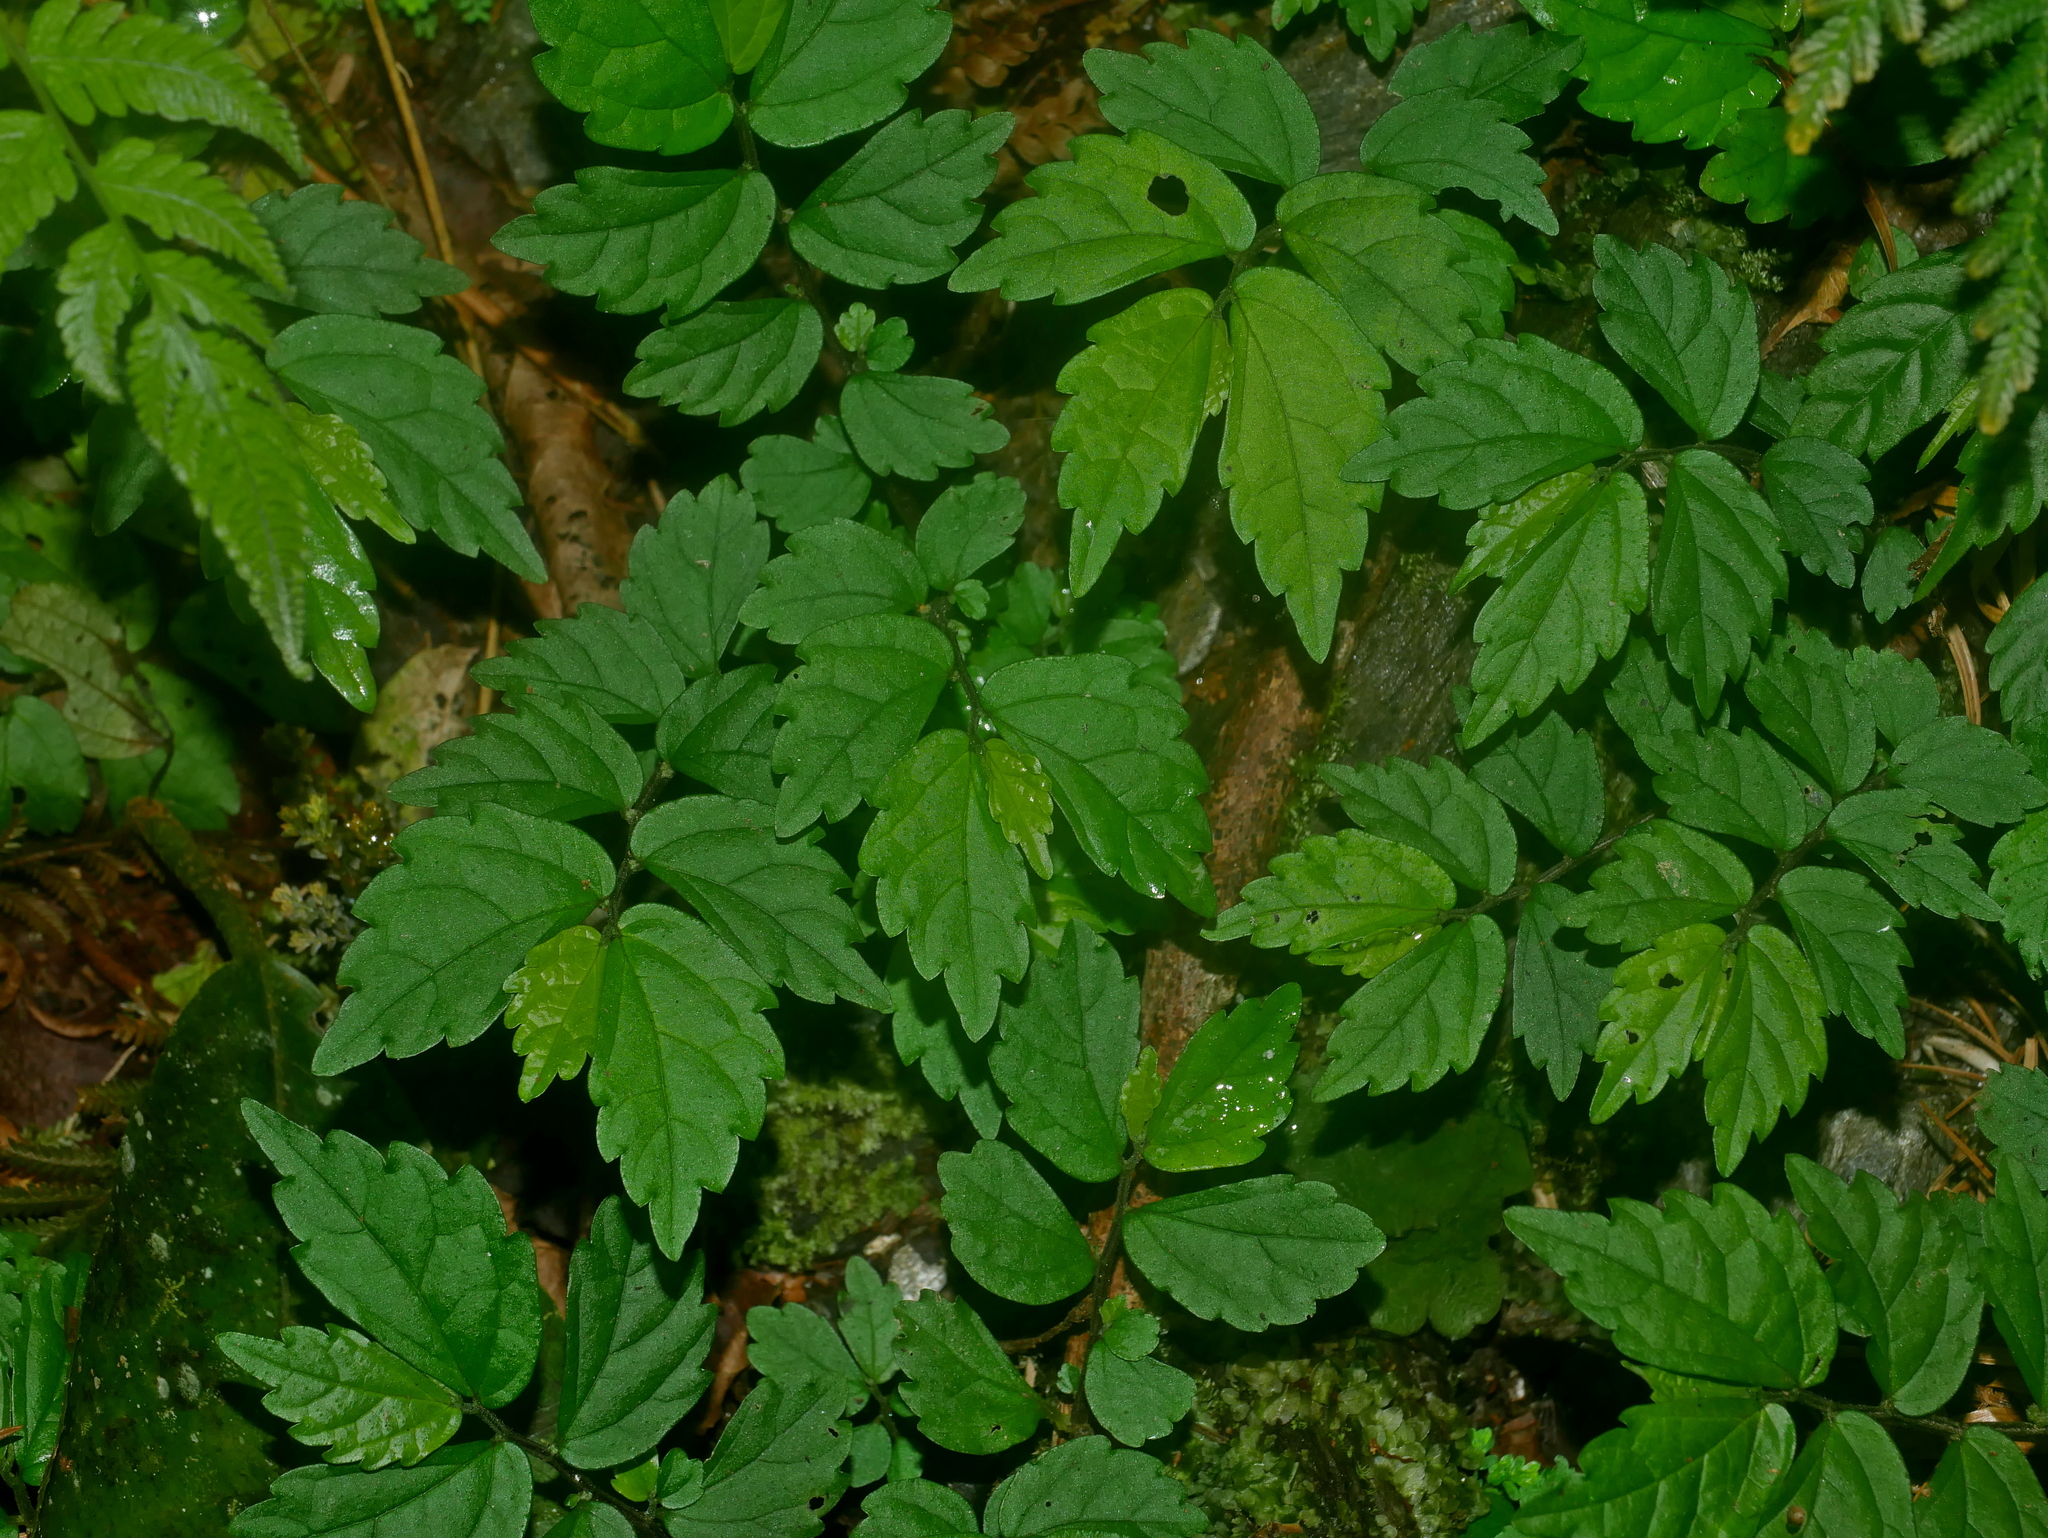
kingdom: Plantae
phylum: Tracheophyta
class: Magnoliopsida
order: Rosales
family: Urticaceae
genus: Elatostema
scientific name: Elatostema microcephalanthum
